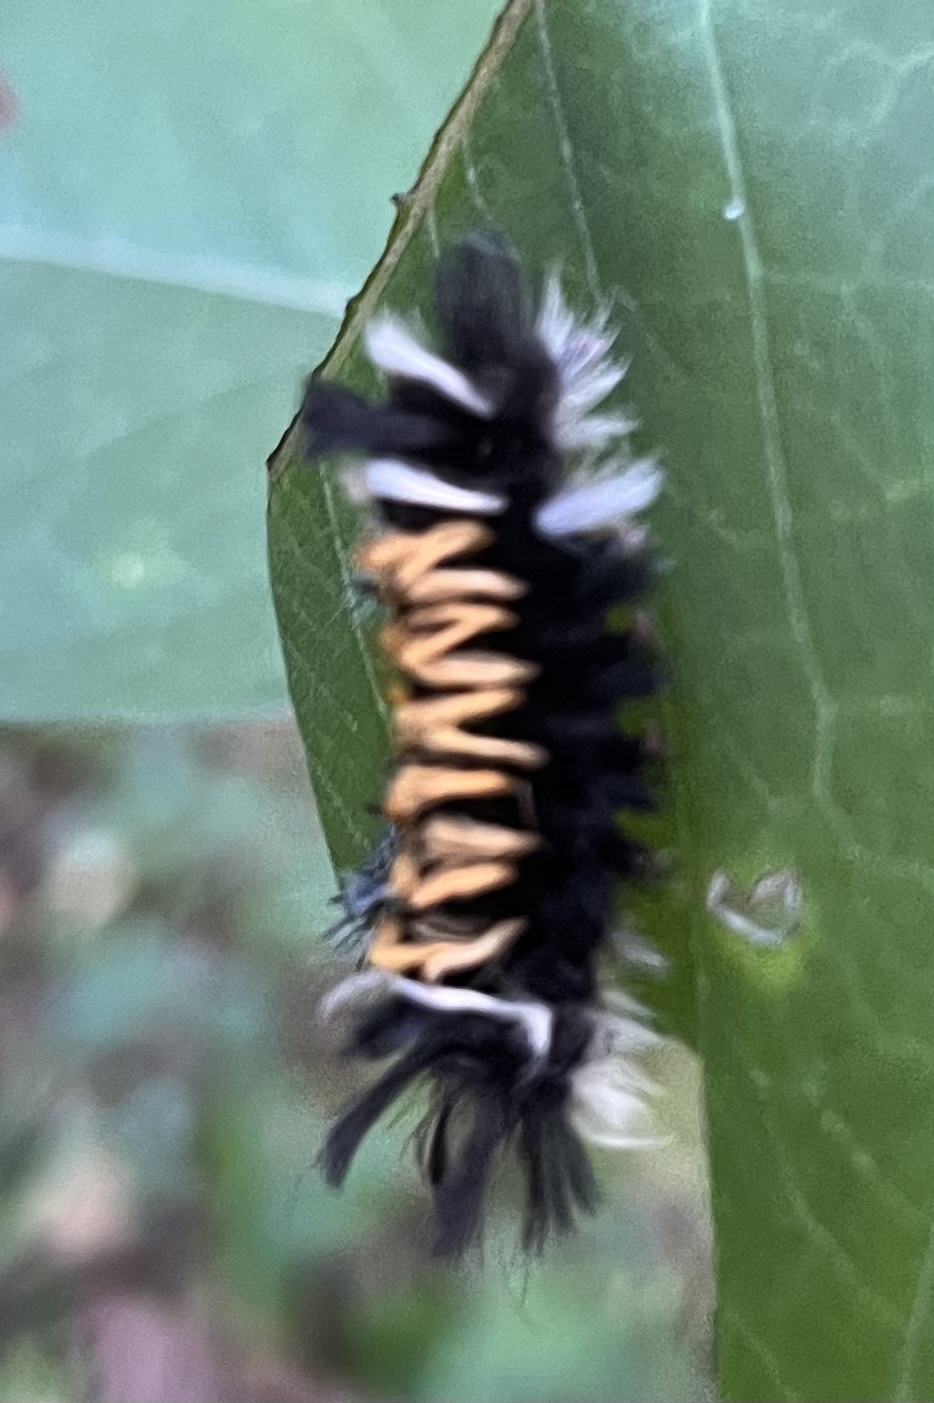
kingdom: Animalia
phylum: Arthropoda
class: Insecta
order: Lepidoptera
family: Erebidae
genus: Euchaetes
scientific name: Euchaetes egle
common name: Milkweed tussock moth
